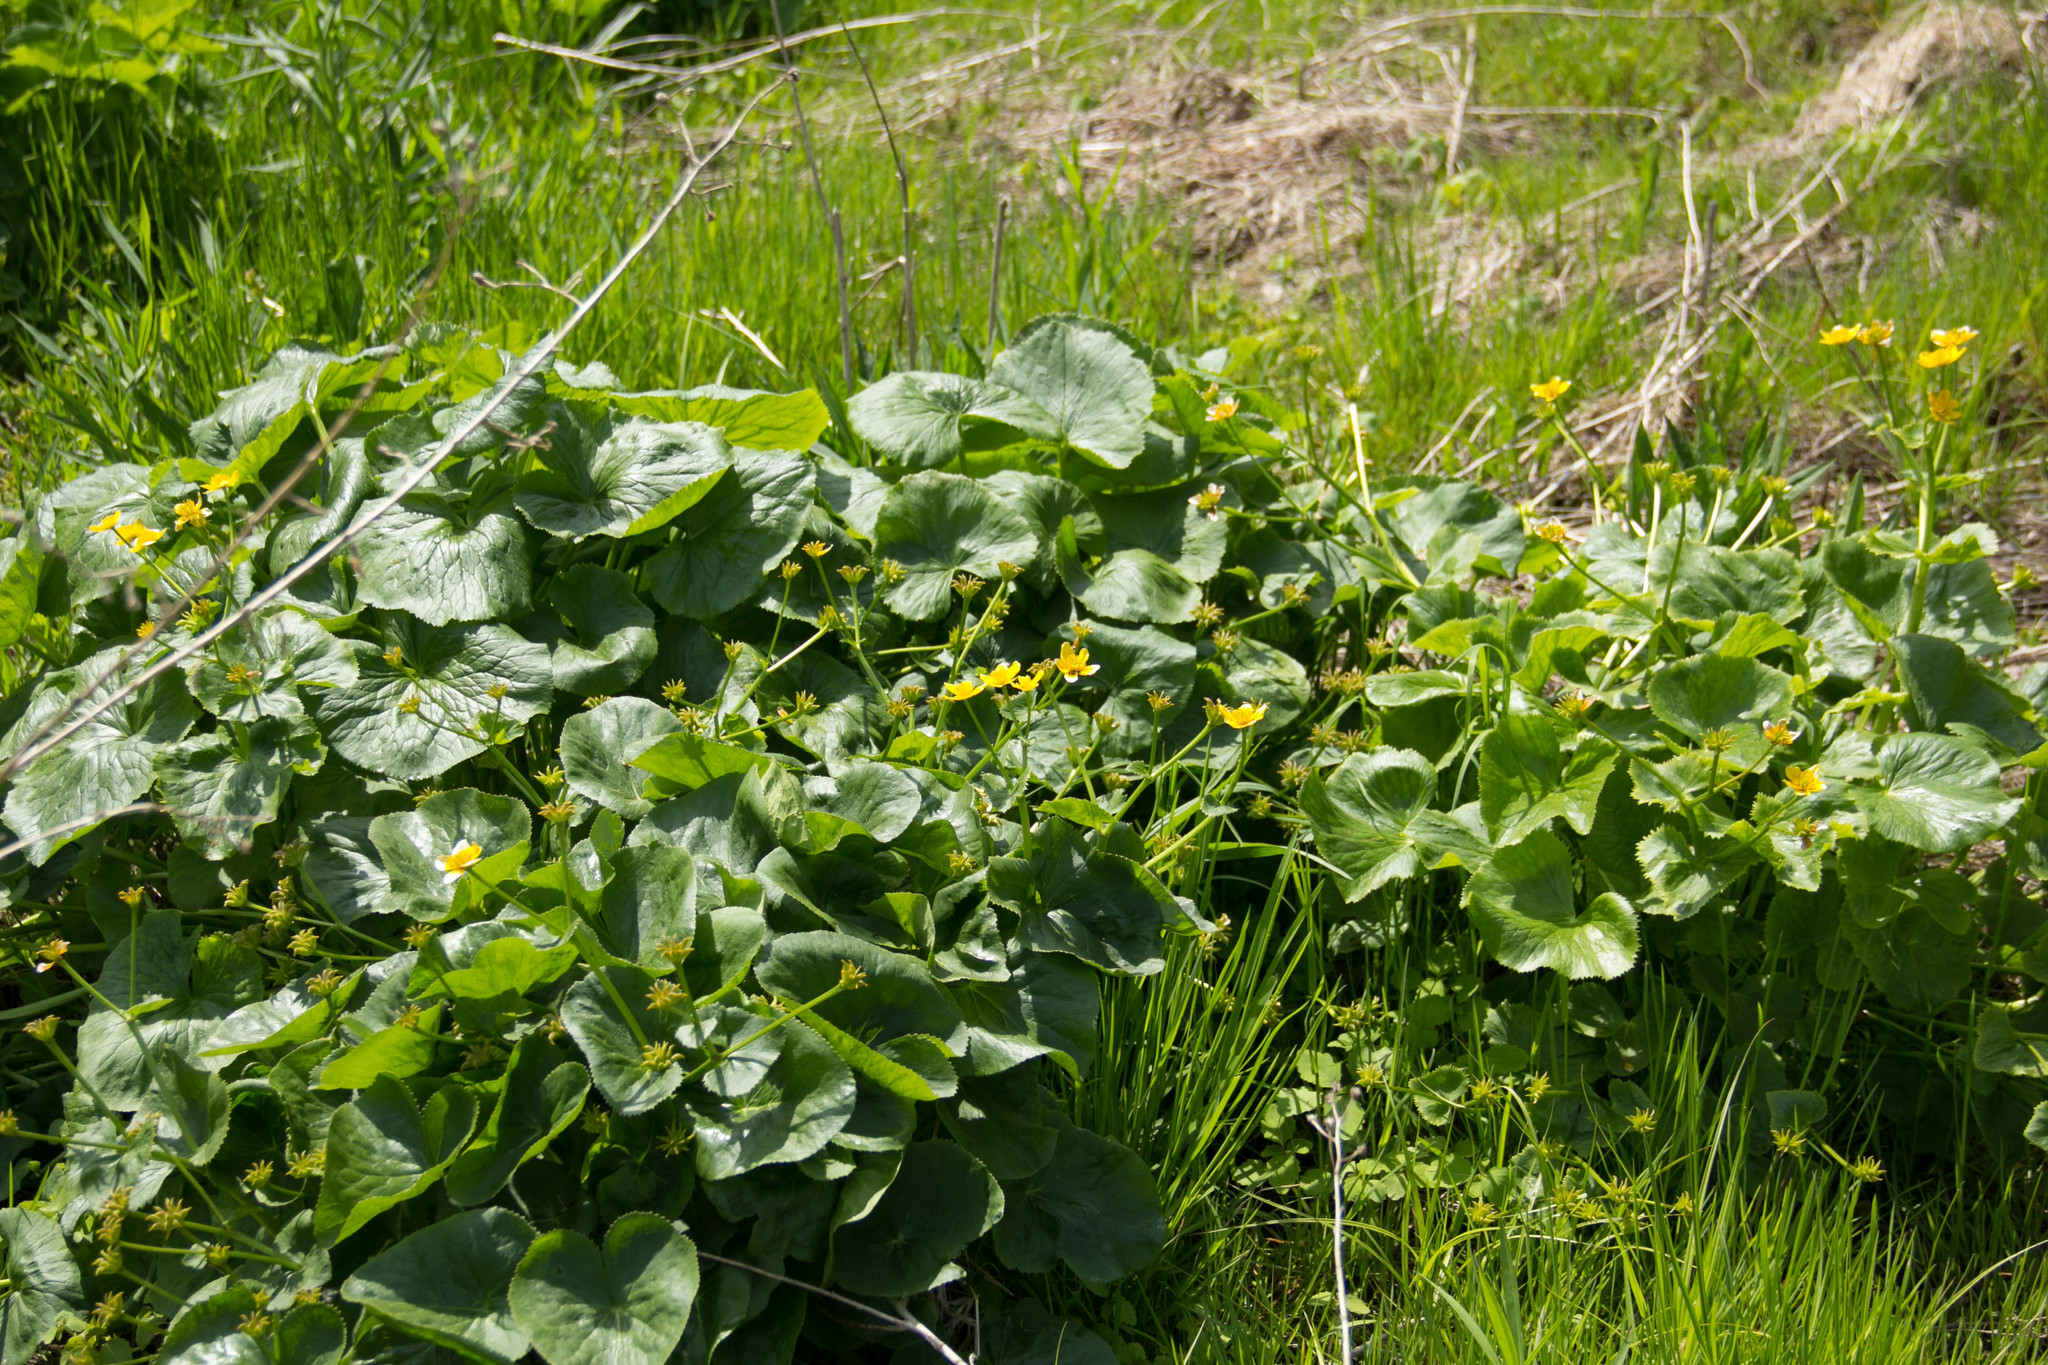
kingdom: Plantae
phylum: Tracheophyta
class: Magnoliopsida
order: Ranunculales
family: Ranunculaceae
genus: Caltha
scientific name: Caltha palustris
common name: Marsh marigold
